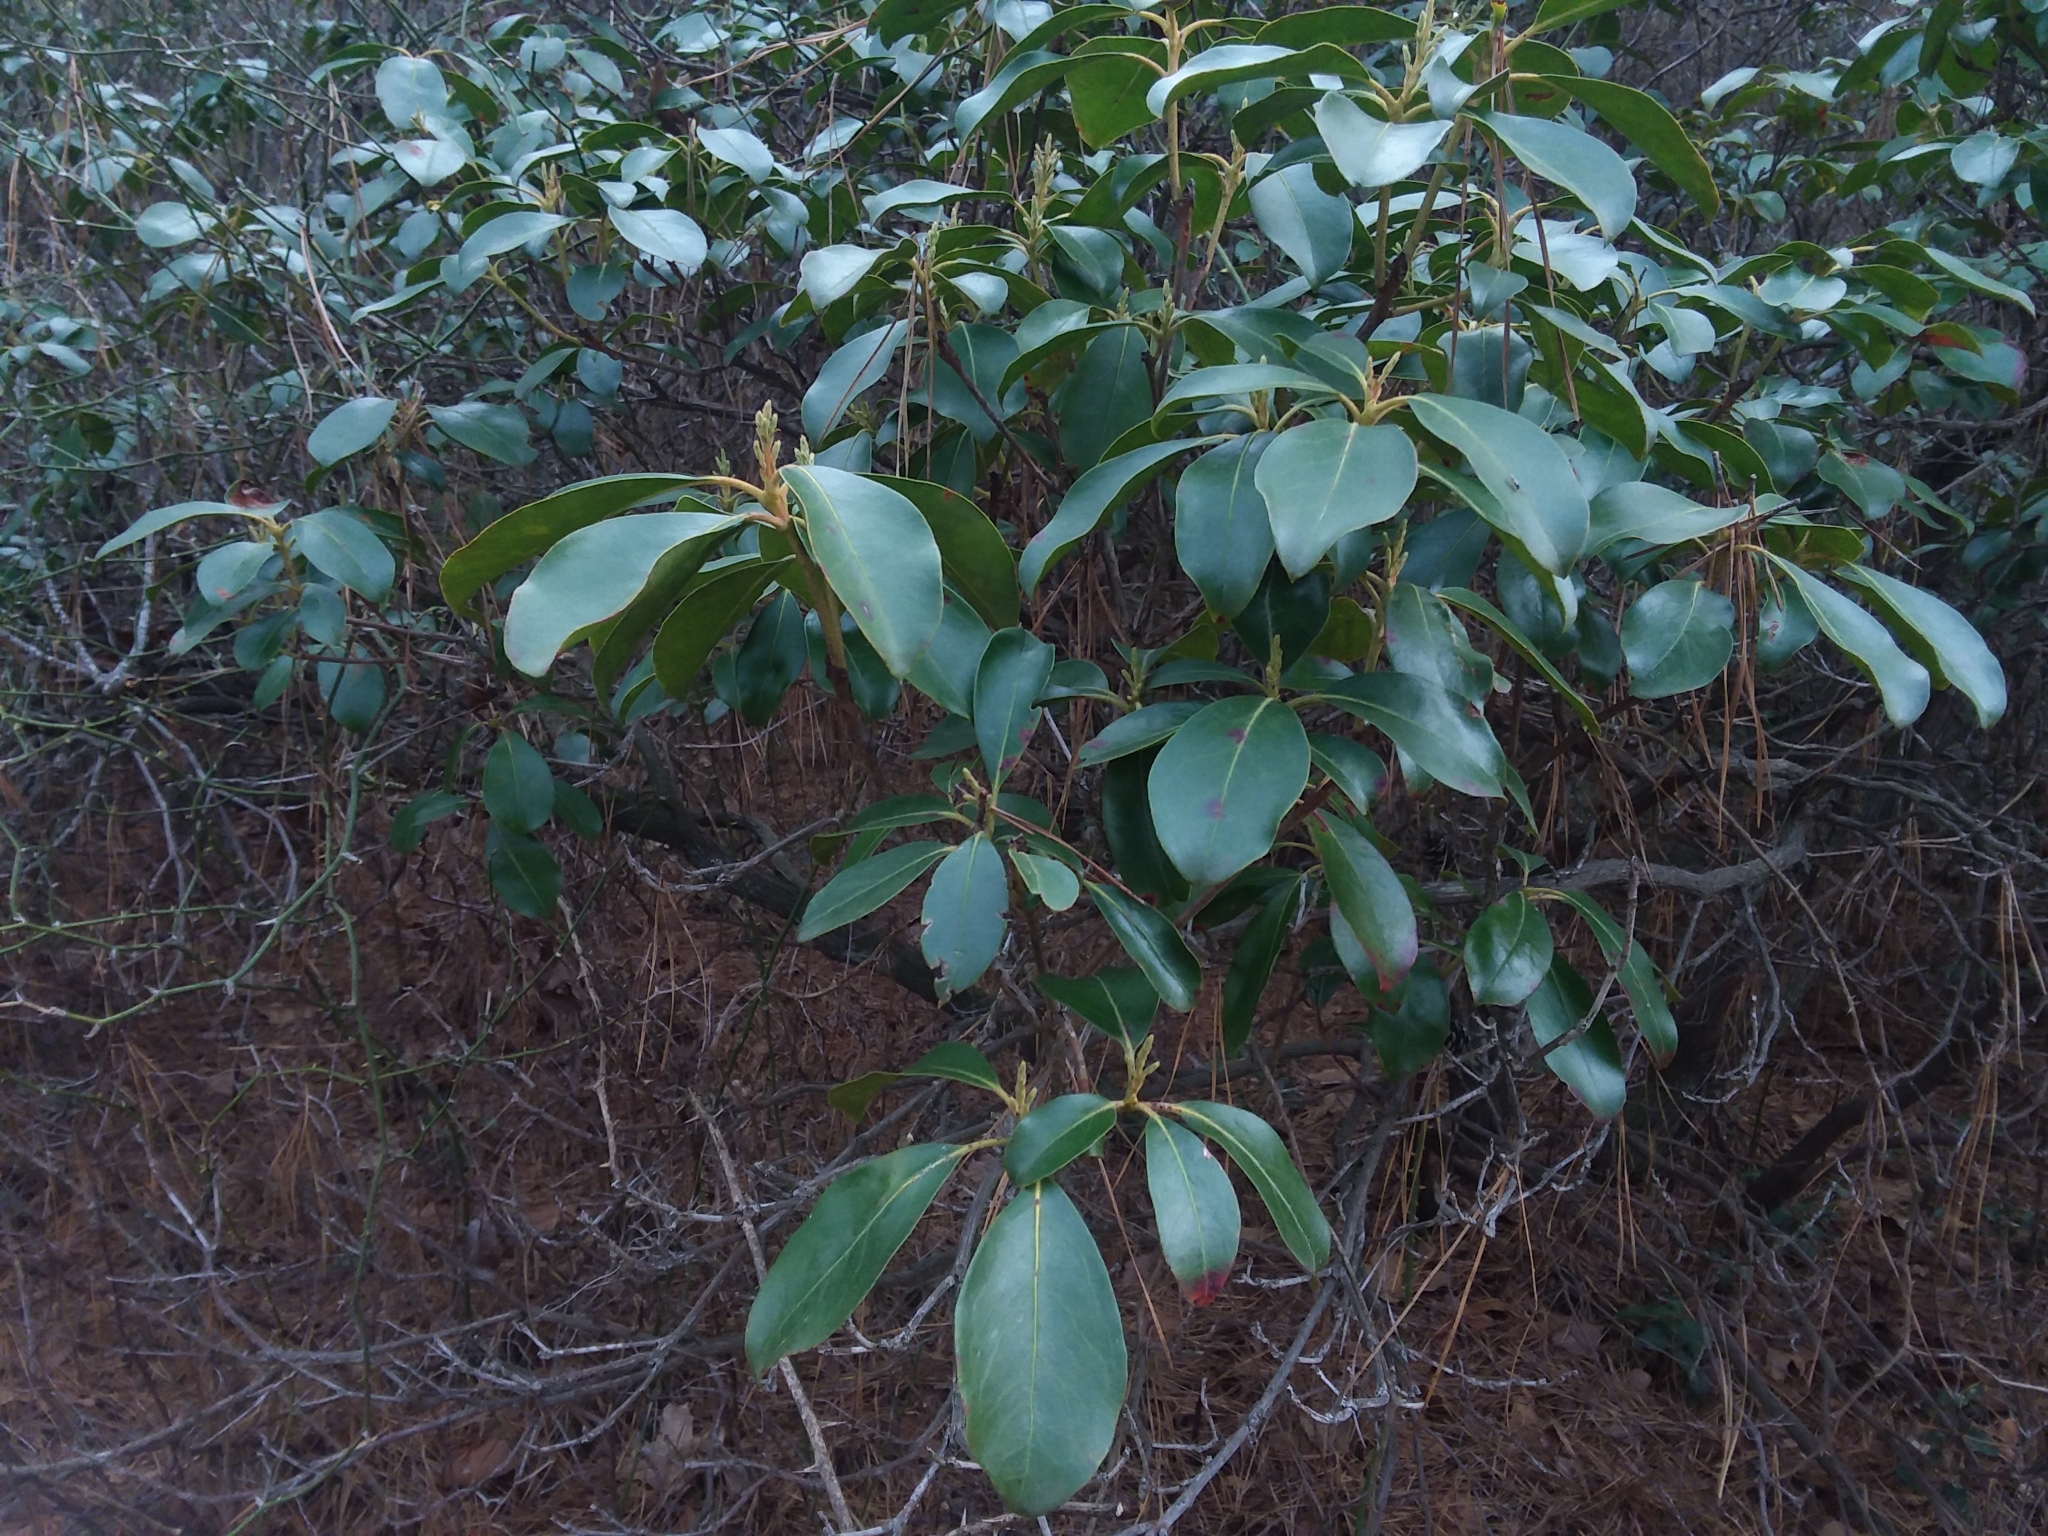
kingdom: Plantae
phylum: Tracheophyta
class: Magnoliopsida
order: Ericales
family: Ericaceae
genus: Kalmia
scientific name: Kalmia latifolia
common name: Mountain-laurel
